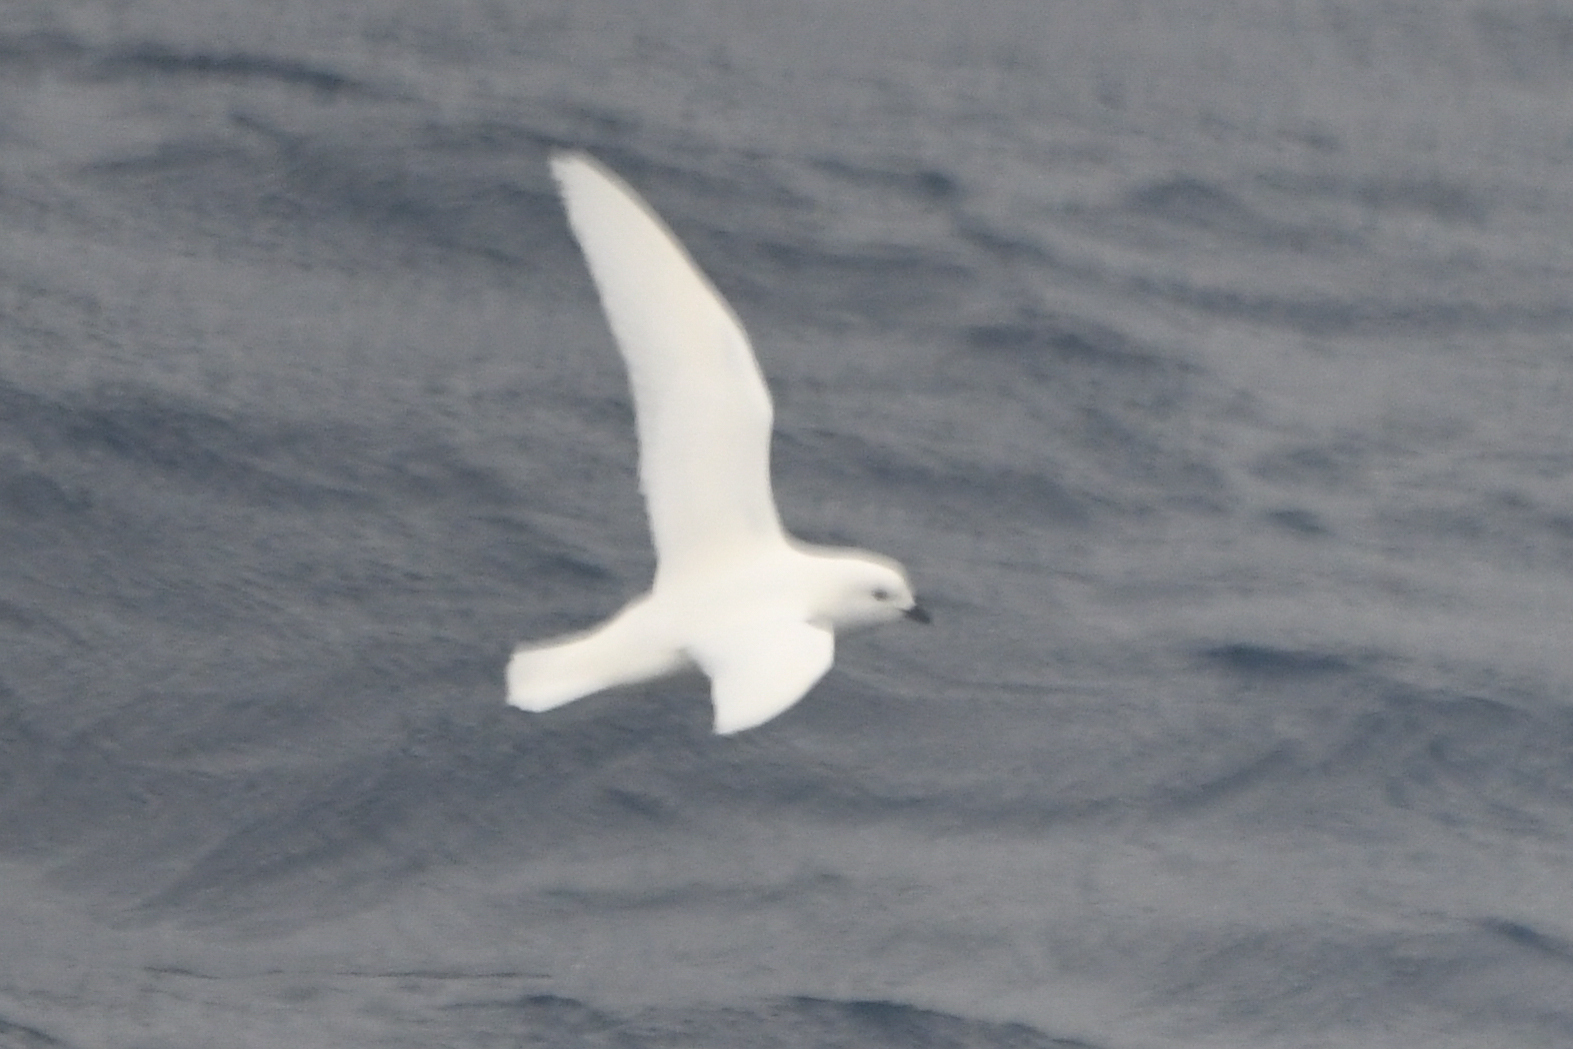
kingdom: Animalia
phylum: Chordata
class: Aves
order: Procellariiformes
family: Procellariidae
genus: Pagodroma
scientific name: Pagodroma nivea
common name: Snow petrel
